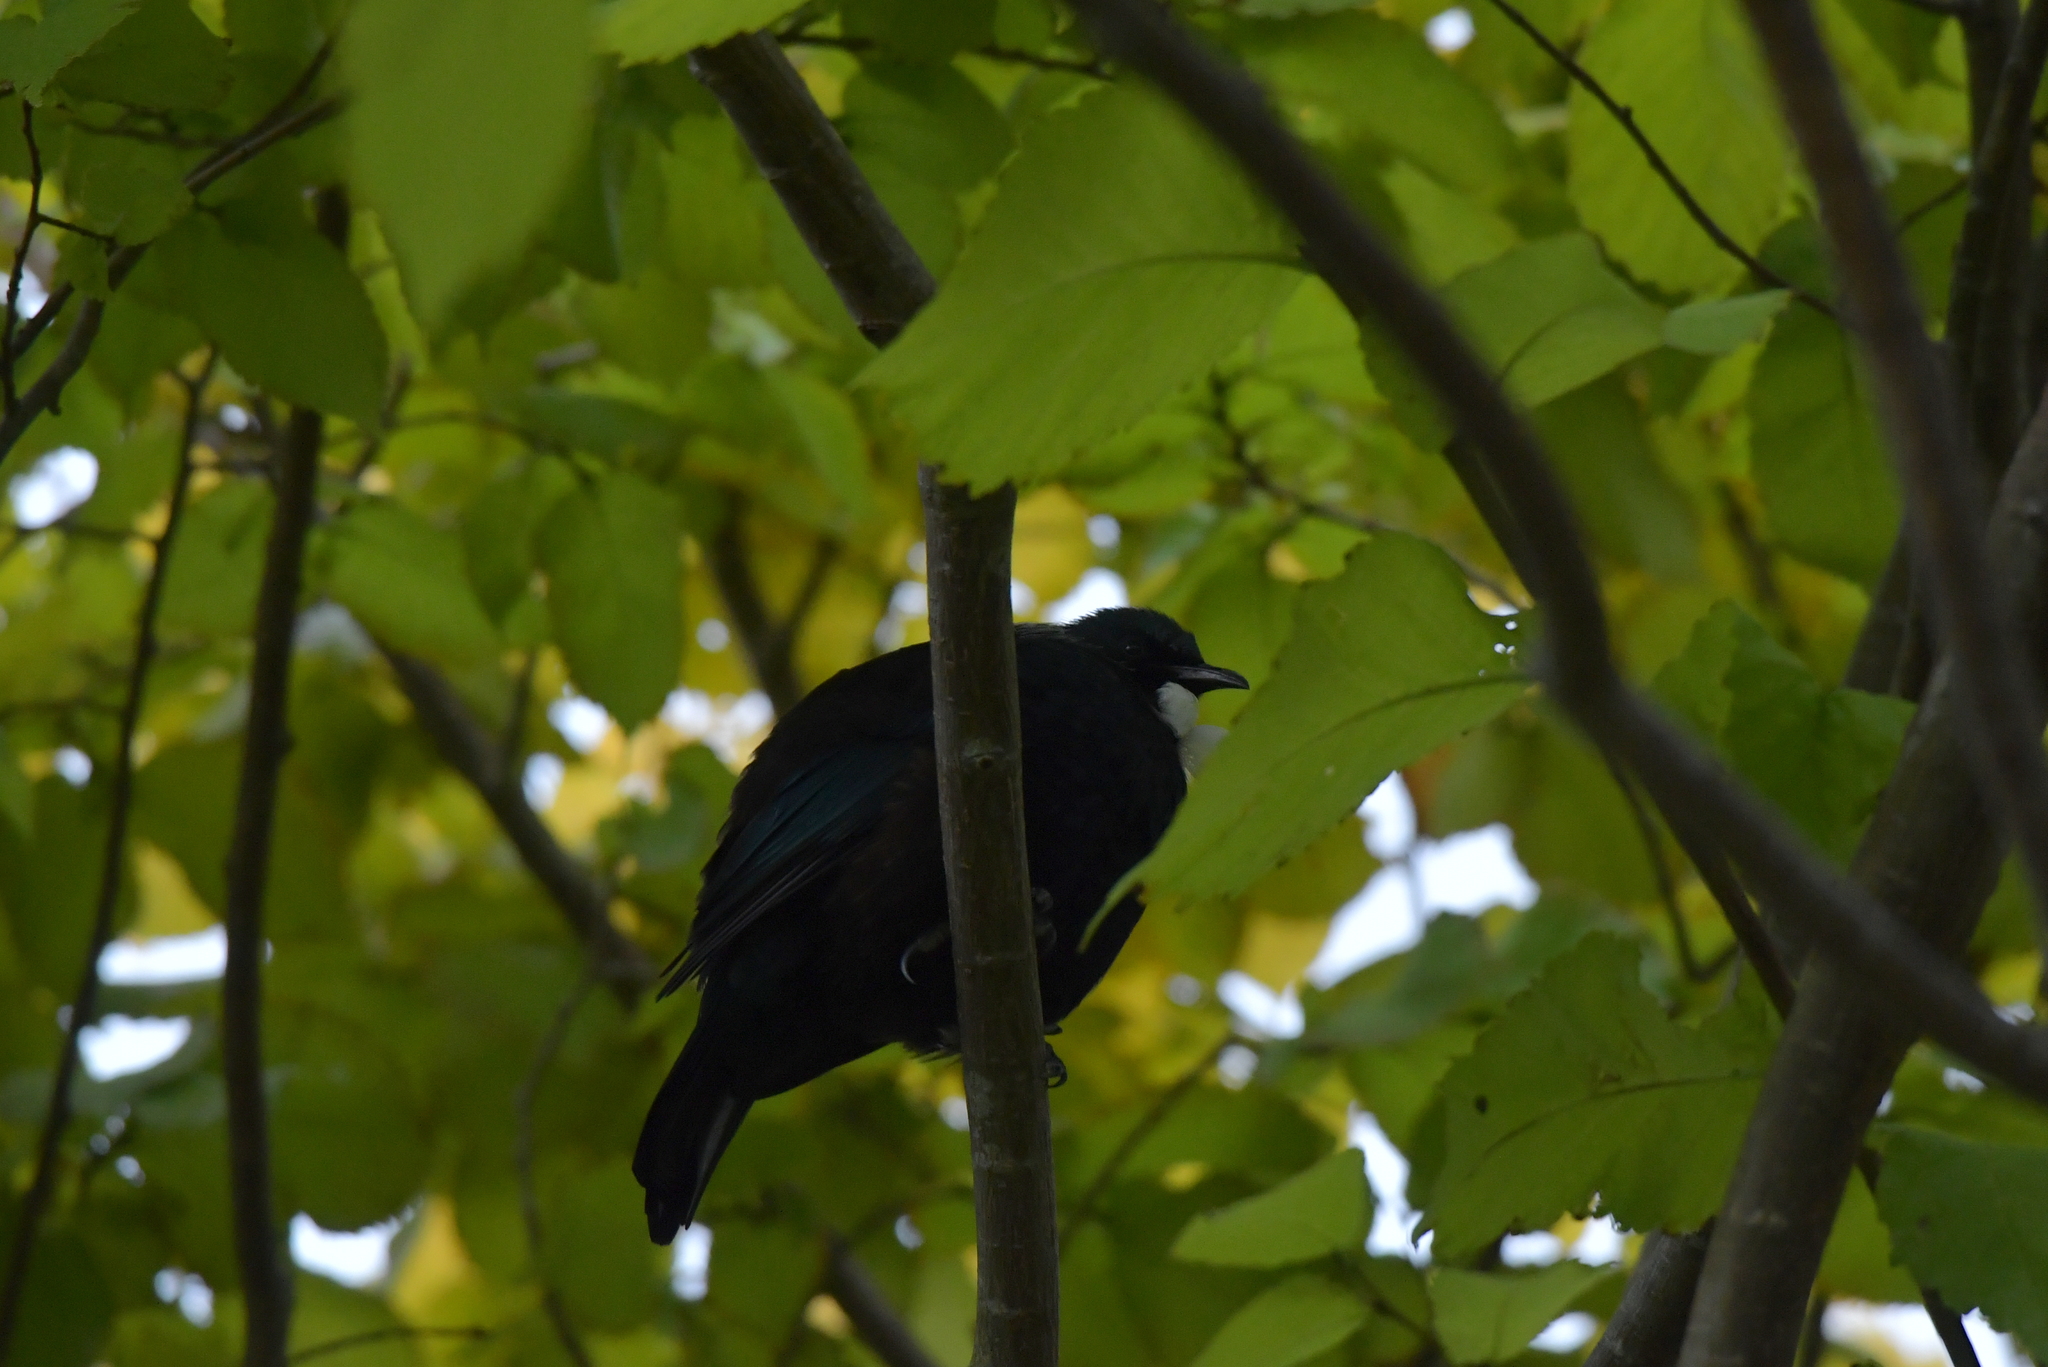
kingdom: Animalia
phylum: Chordata
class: Aves
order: Passeriformes
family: Meliphagidae
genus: Prosthemadera
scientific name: Prosthemadera novaeseelandiae
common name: Tui
